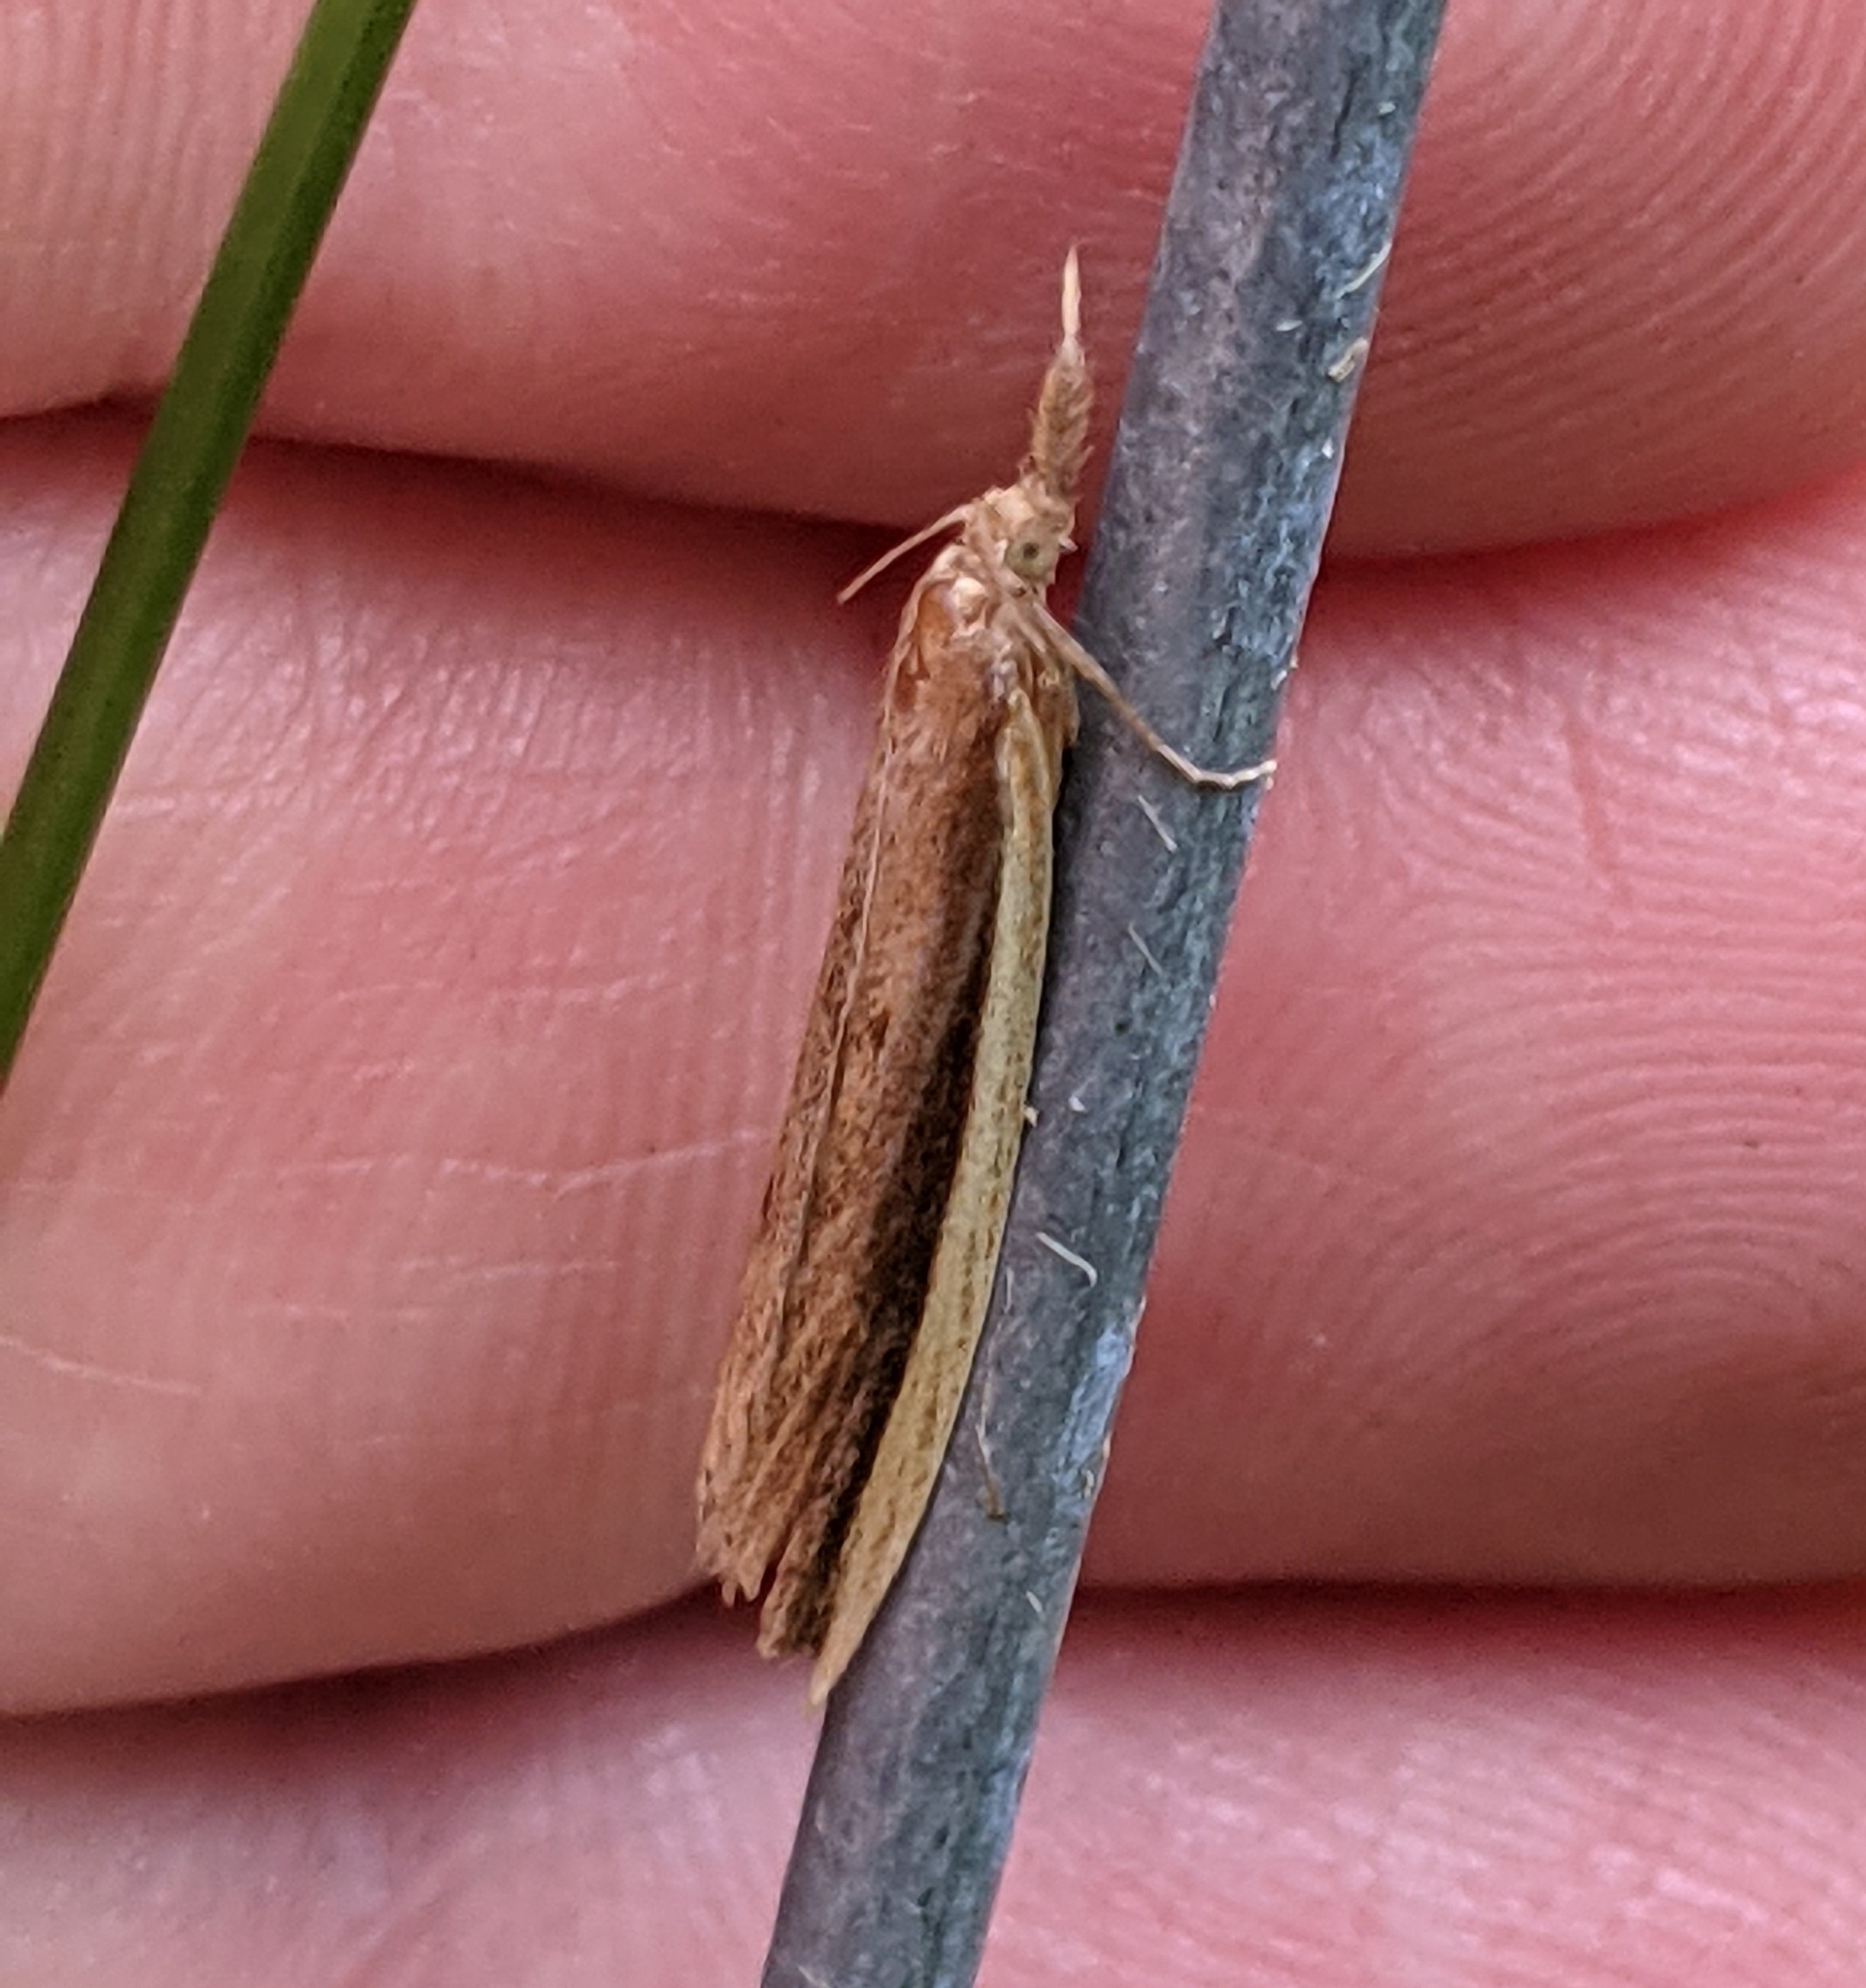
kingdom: Animalia
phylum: Arthropoda
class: Insecta
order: Lepidoptera
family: Crambidae
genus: Donacaula
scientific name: Donacaula melinellus
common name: Delightful donacaula moth
